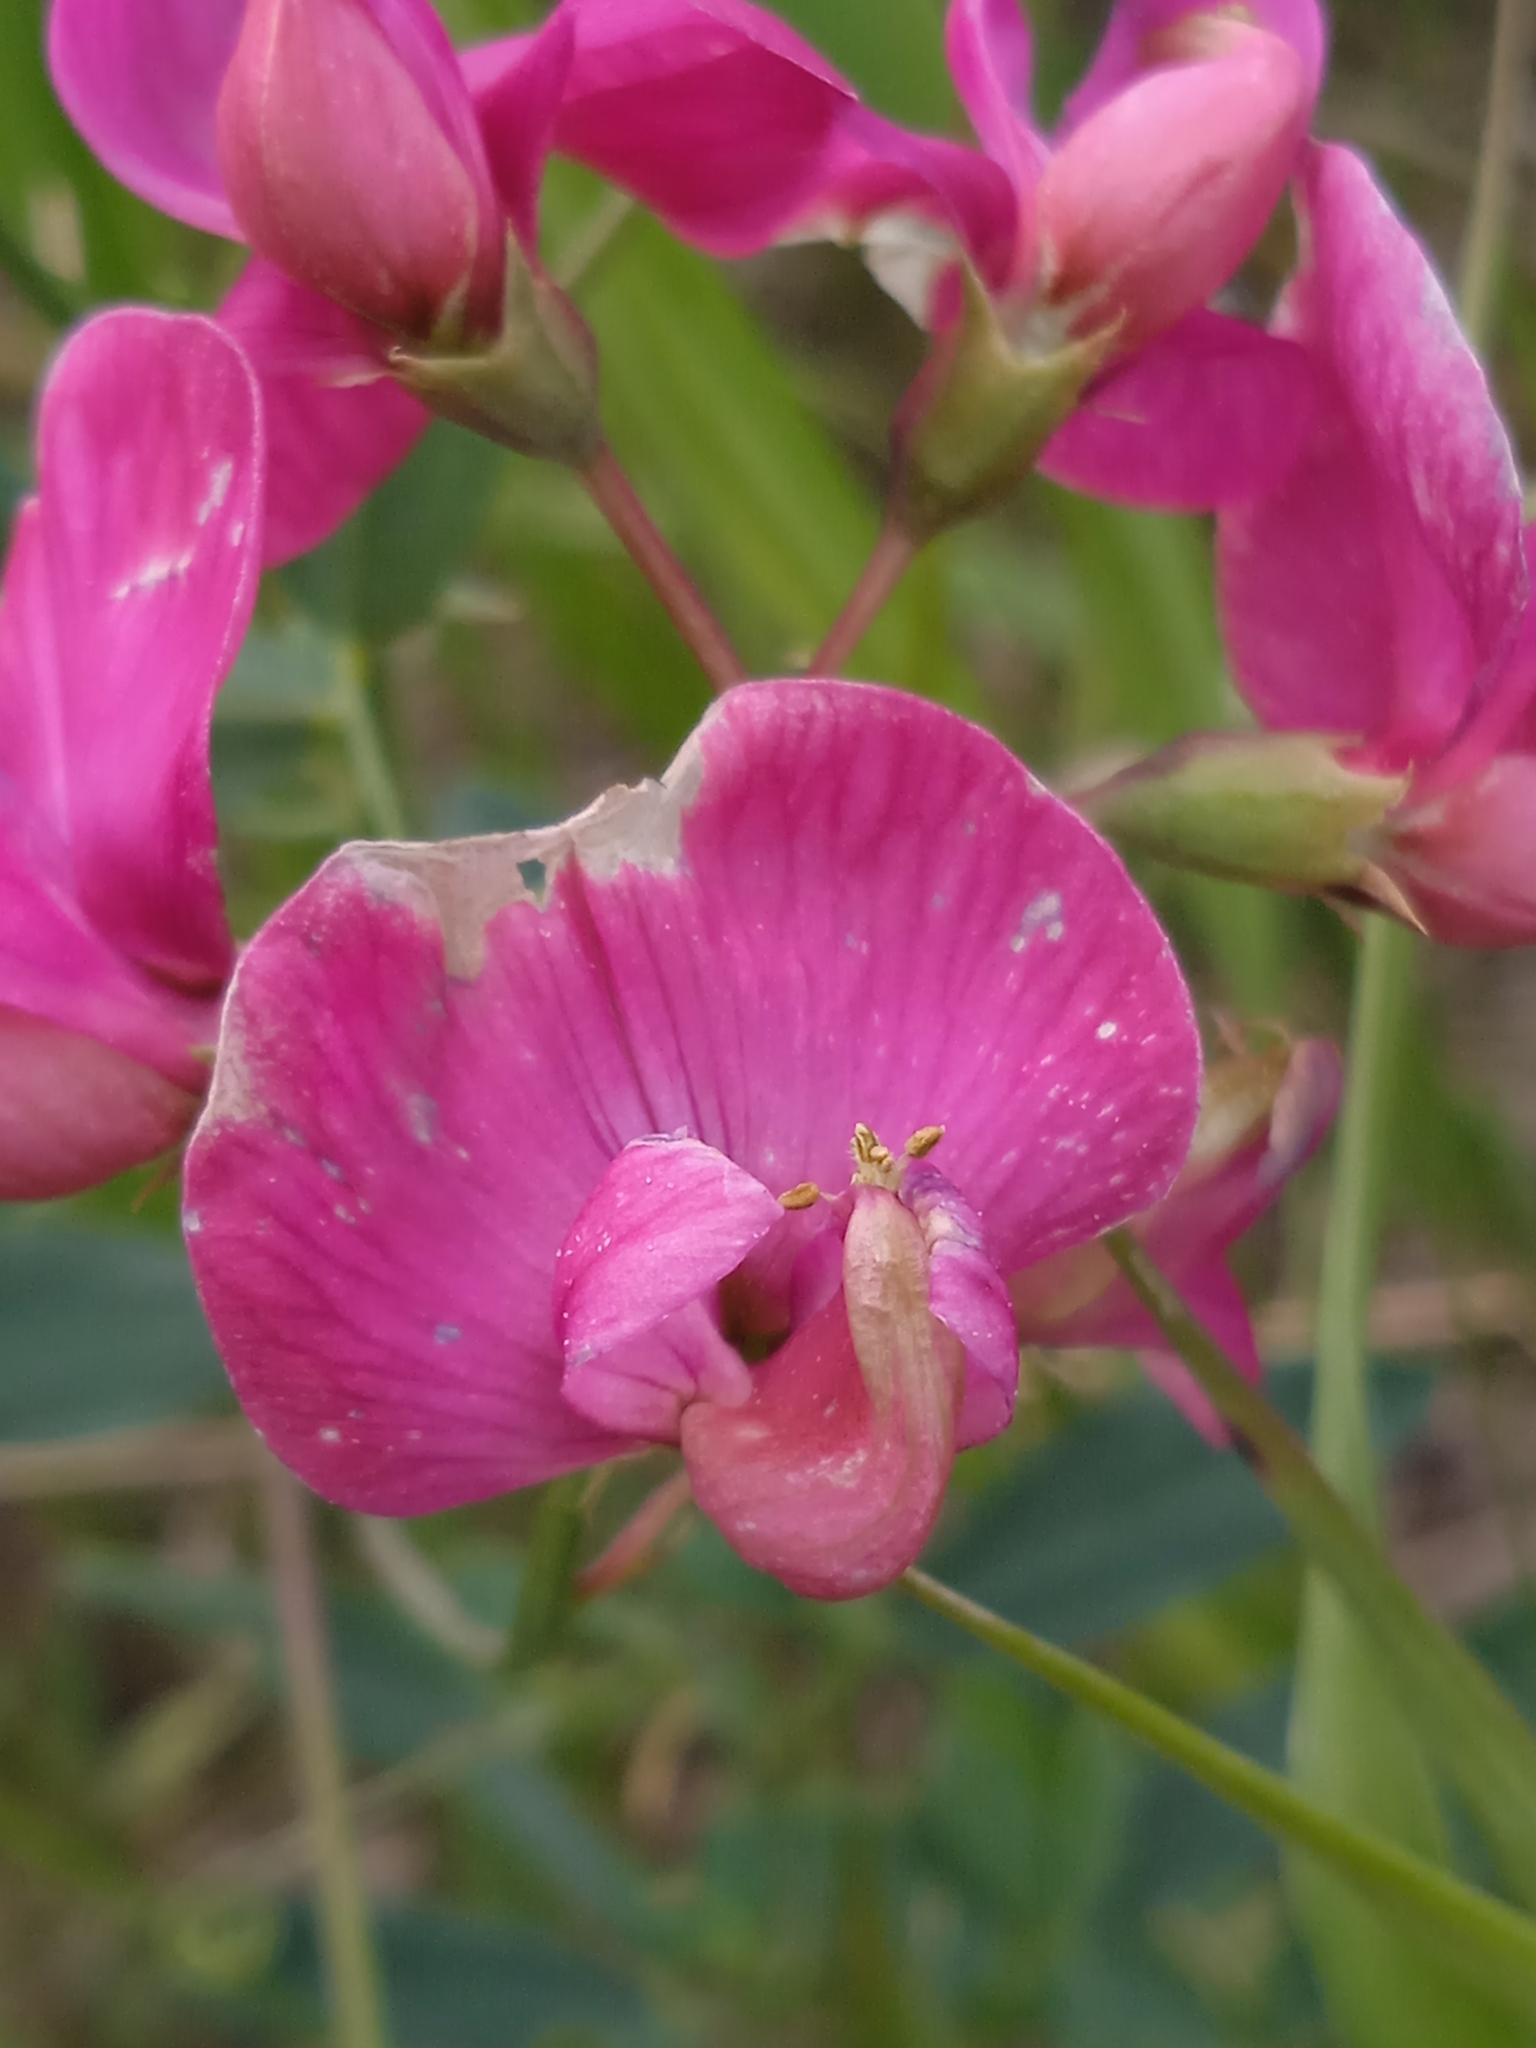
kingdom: Plantae
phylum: Tracheophyta
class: Magnoliopsida
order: Fabales
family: Fabaceae
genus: Lathyrus
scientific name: Lathyrus tuberosus
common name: Tuberous pea
